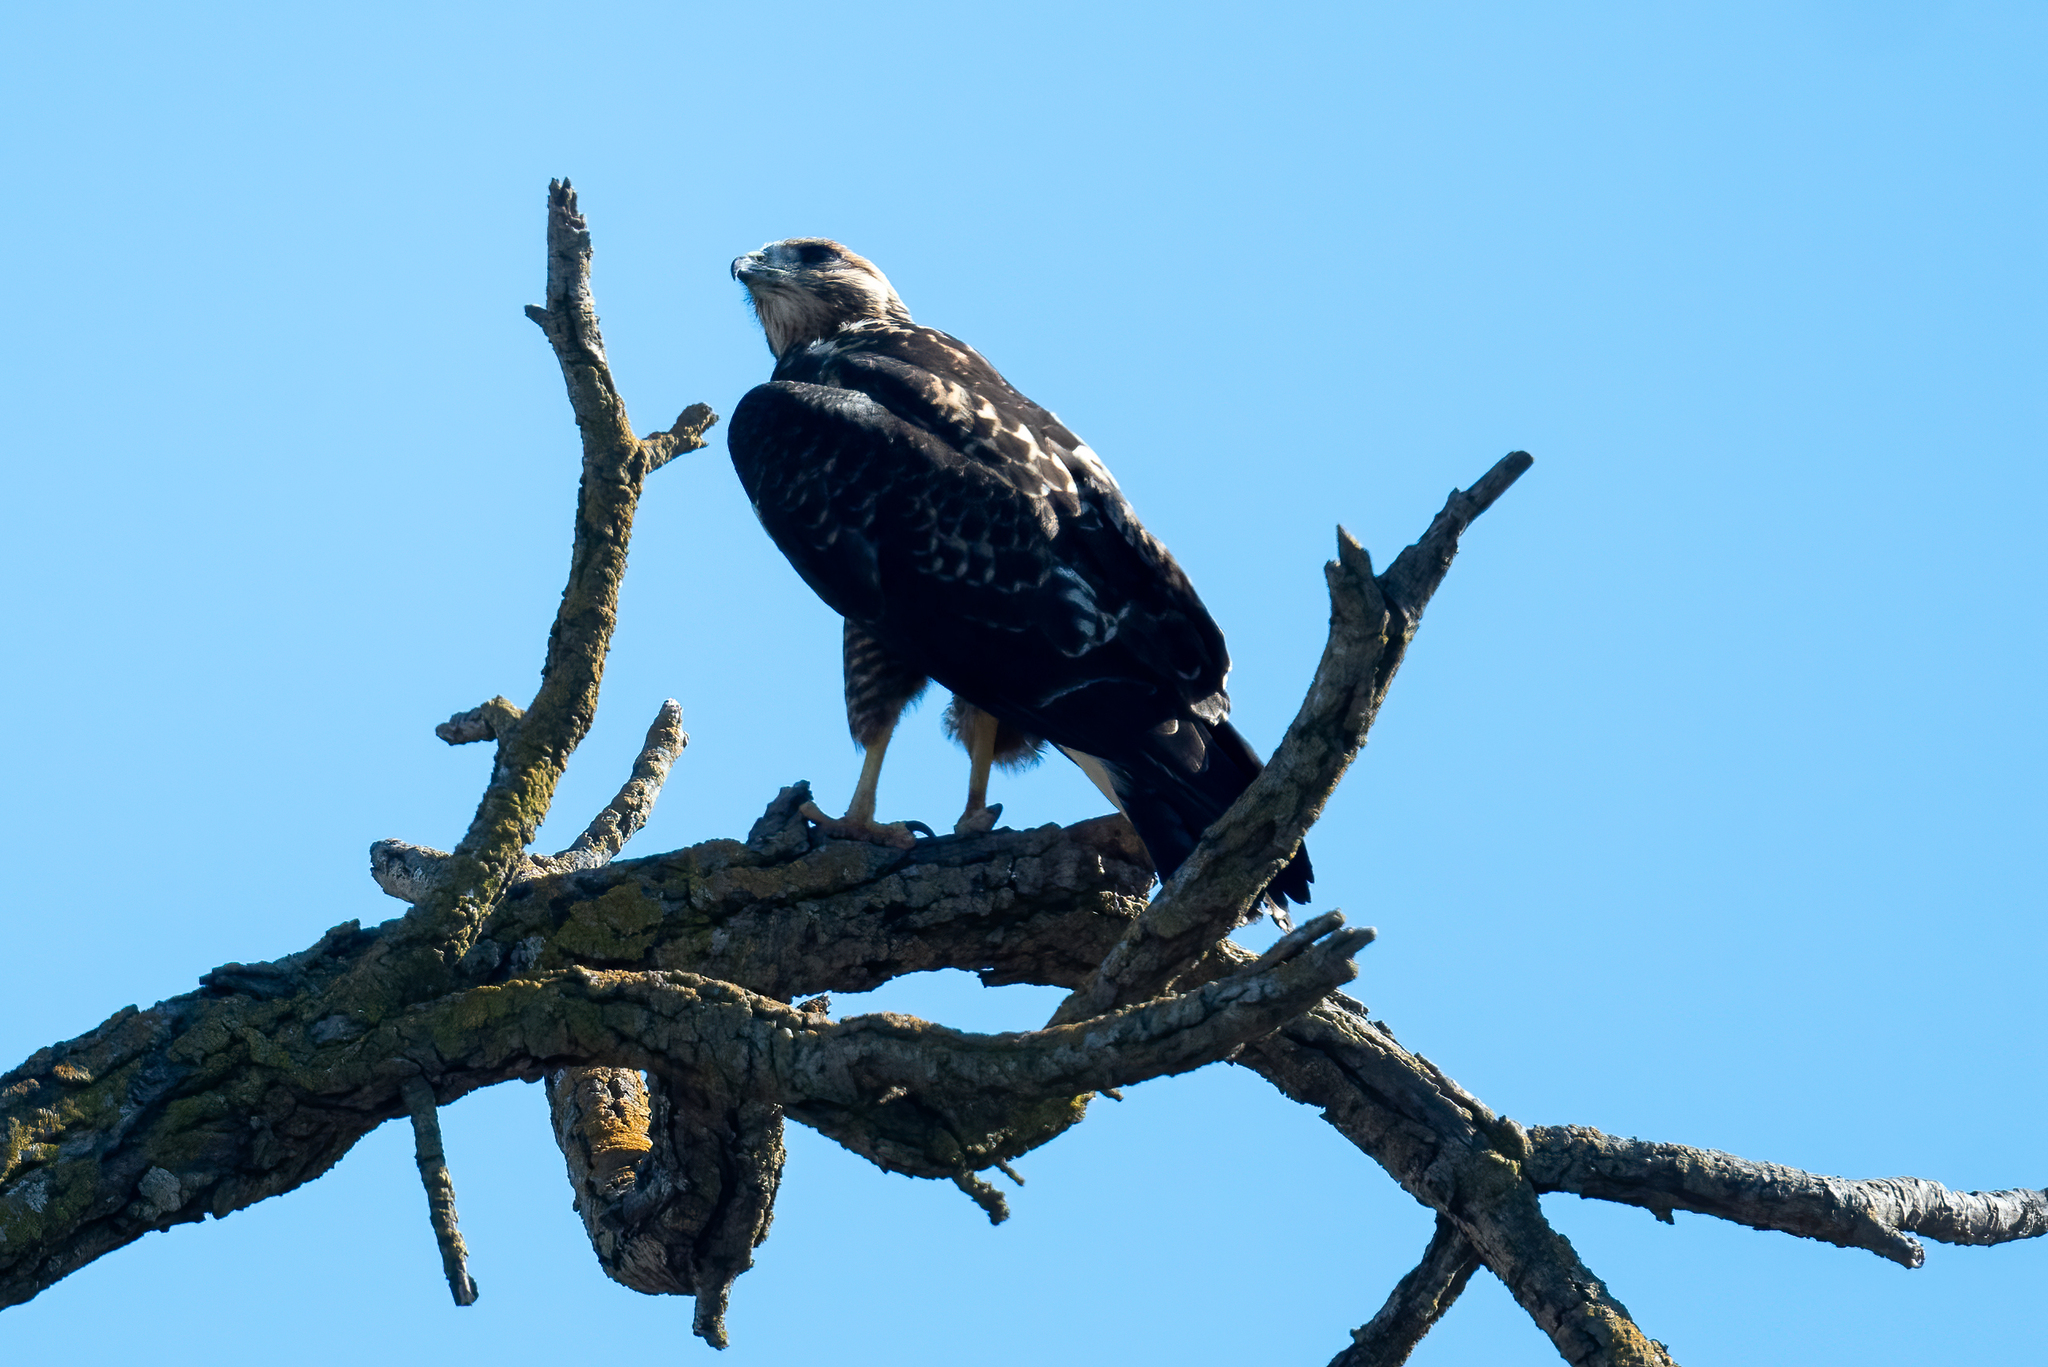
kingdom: Animalia
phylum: Chordata
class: Aves
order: Accipitriformes
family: Accipitridae
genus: Buteo
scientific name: Buteo jamaicensis
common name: Red-tailed hawk
